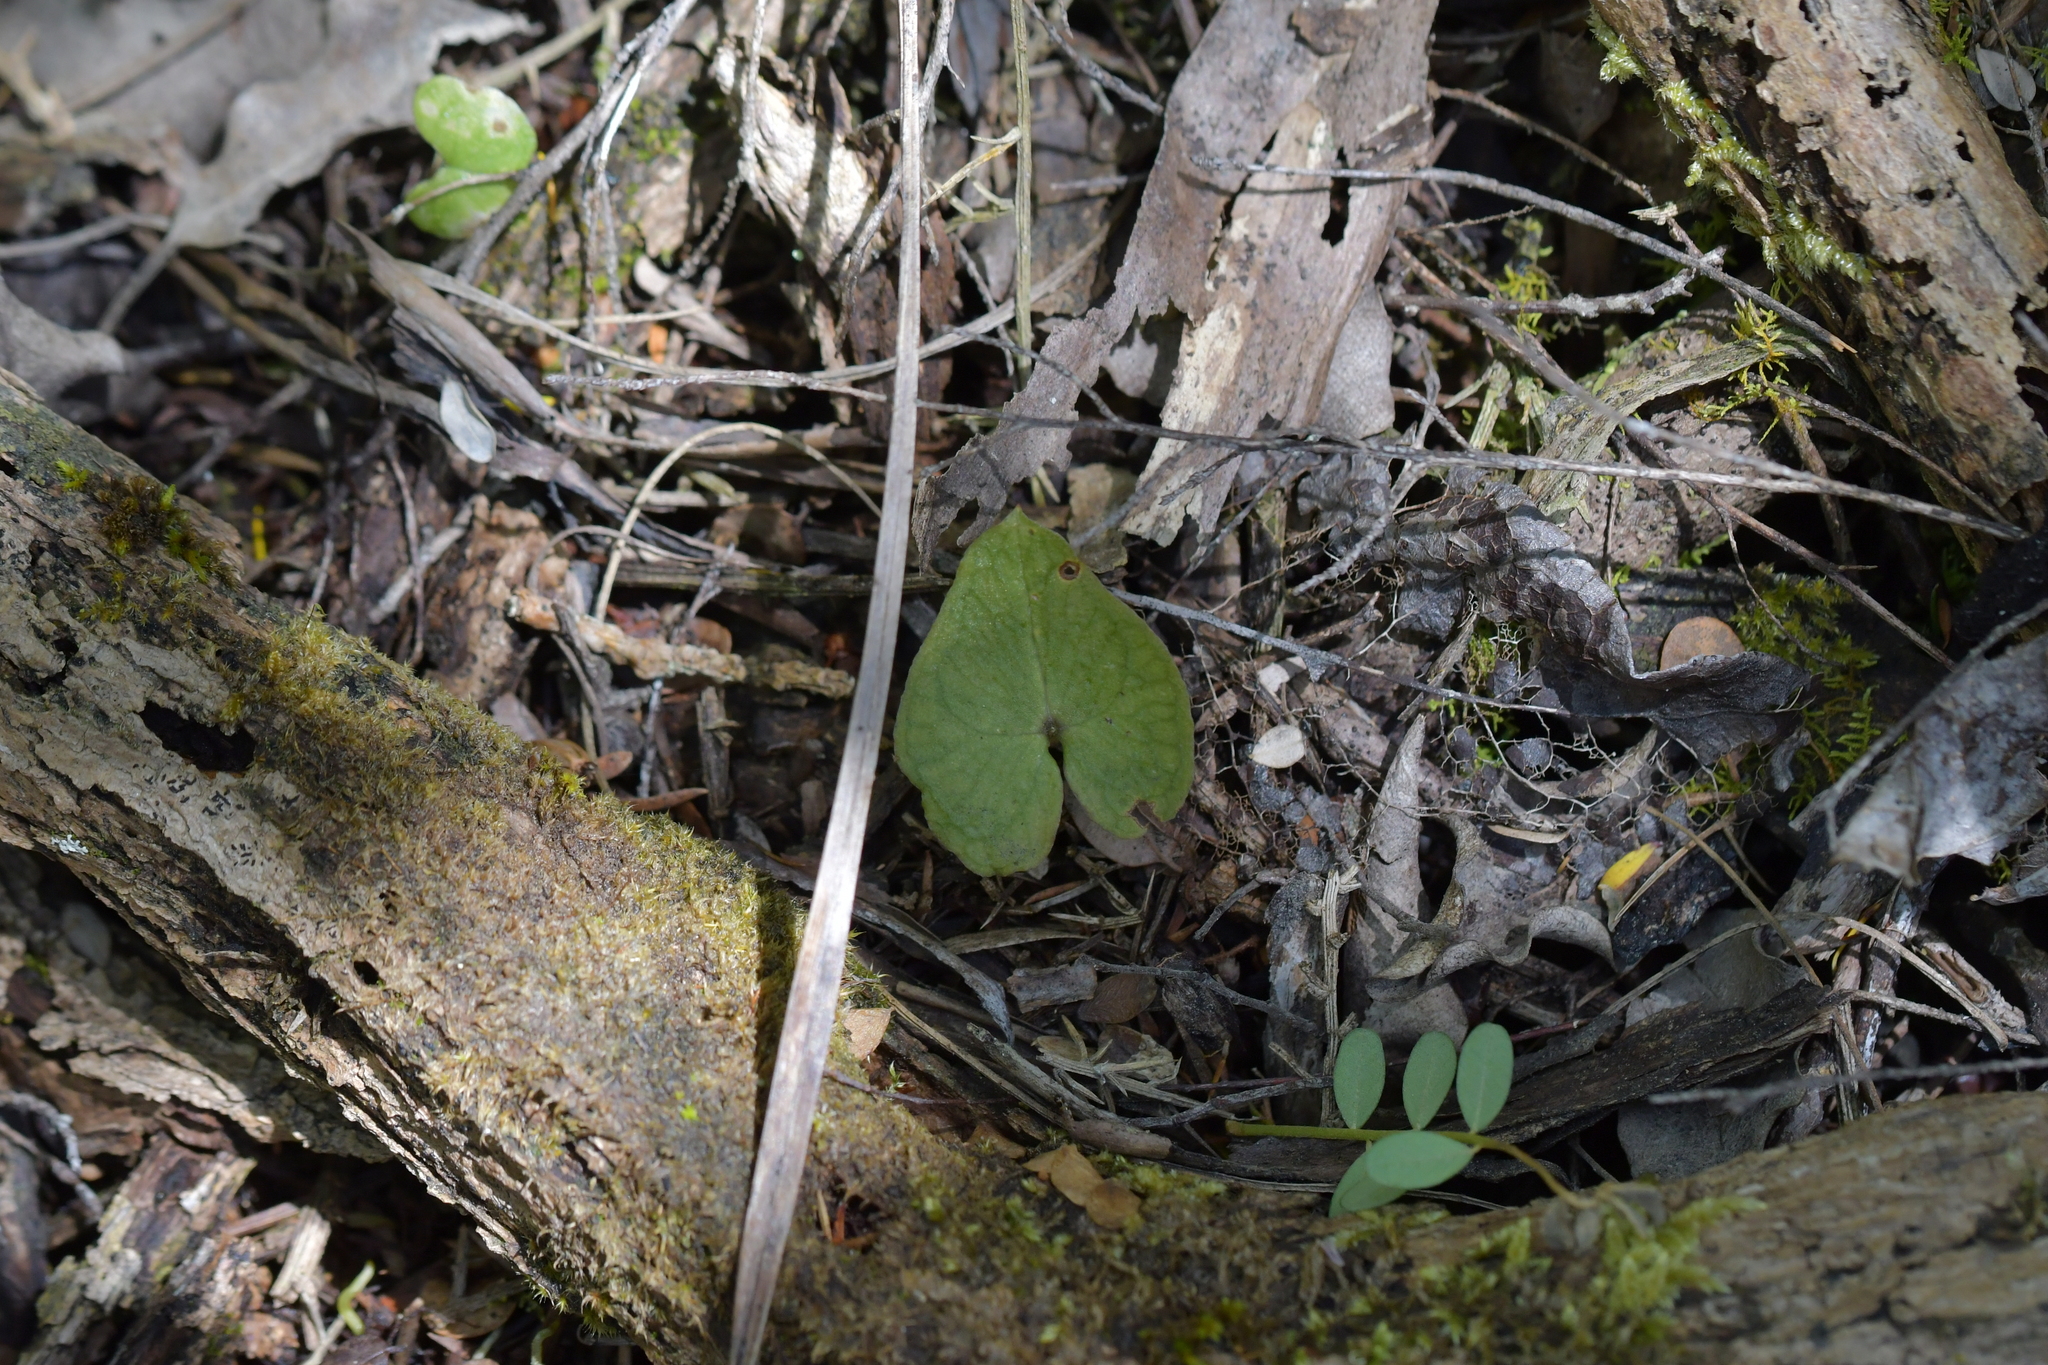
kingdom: Plantae
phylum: Tracheophyta
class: Liliopsida
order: Asparagales
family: Orchidaceae
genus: Acianthus
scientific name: Acianthus sinclairii
